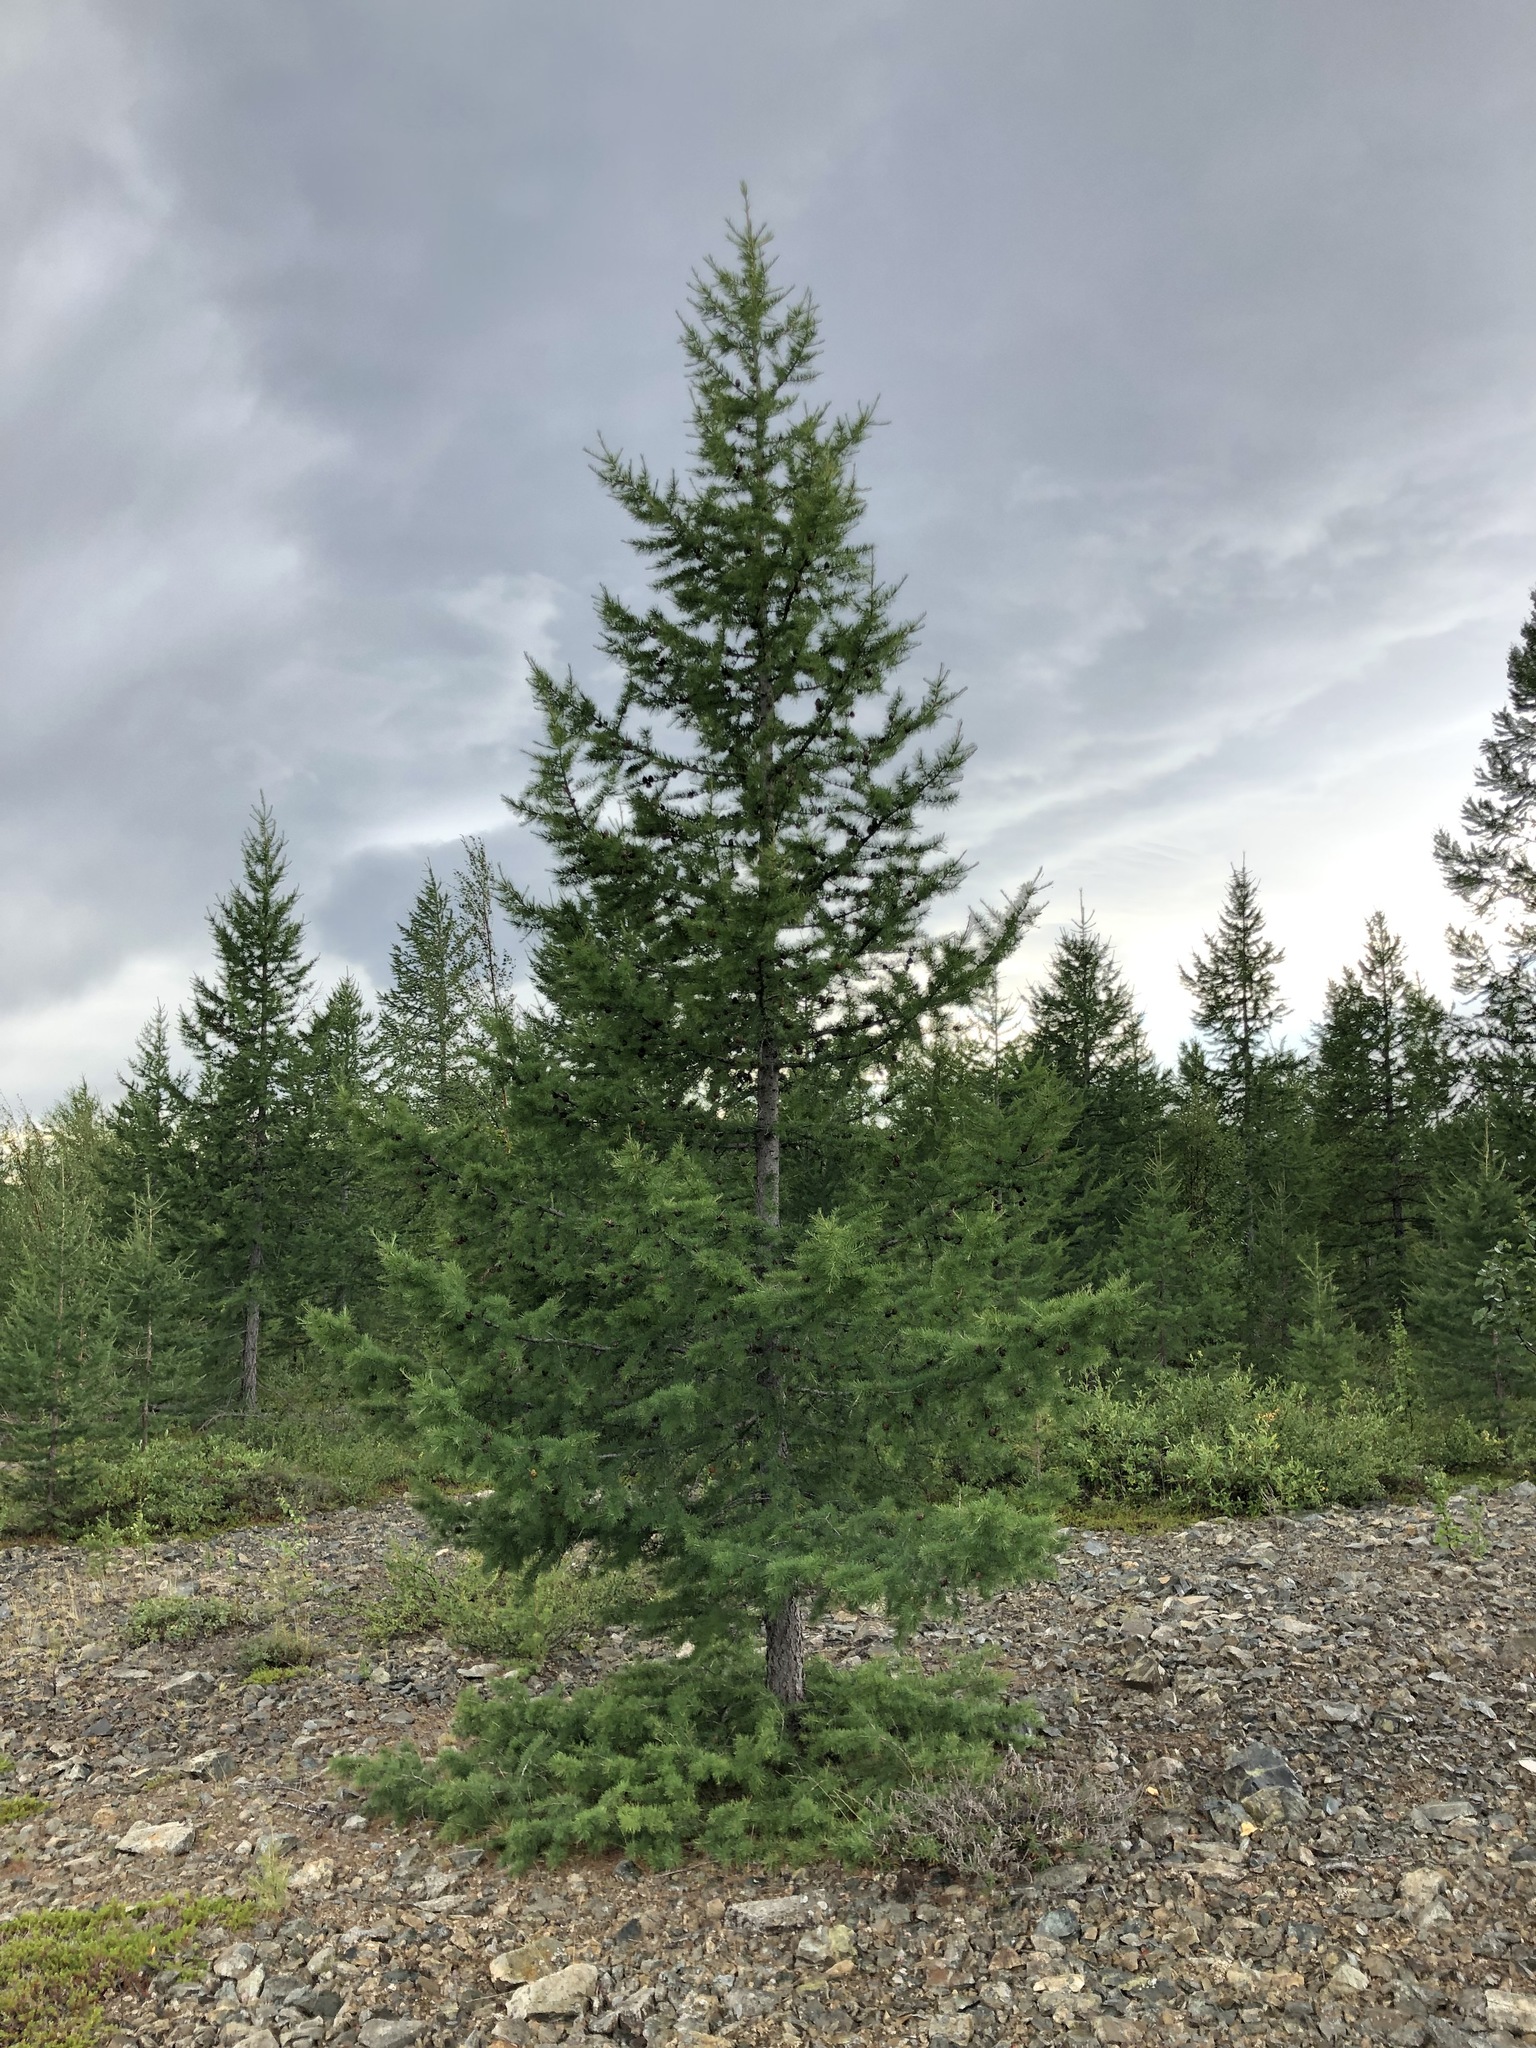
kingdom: Plantae
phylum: Tracheophyta
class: Pinopsida
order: Pinales
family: Pinaceae
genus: Larix
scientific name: Larix sibirica
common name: Siberian larch
